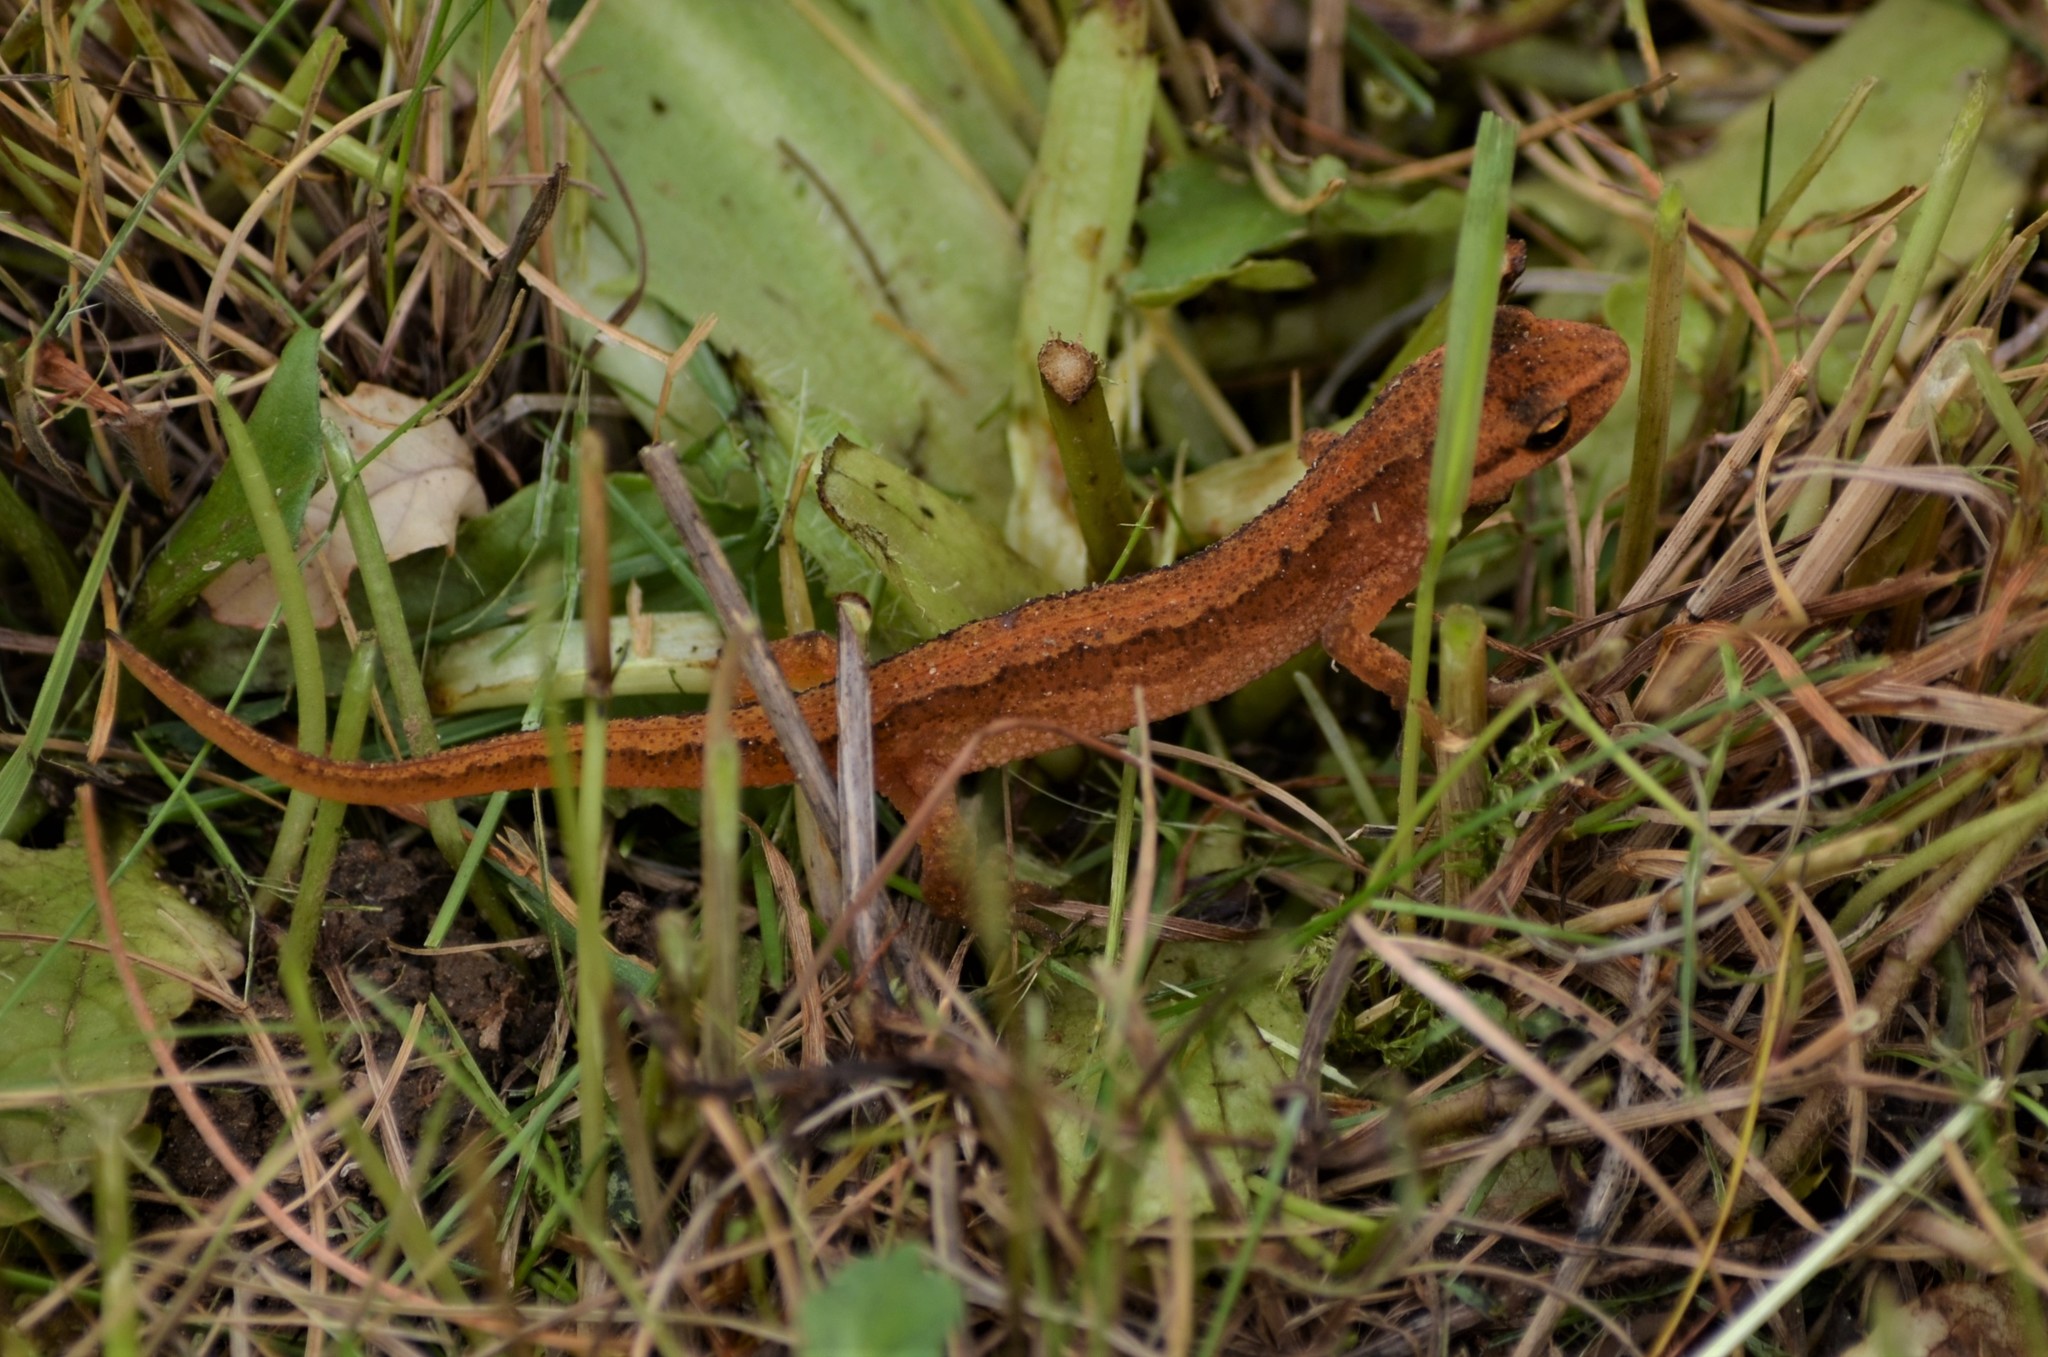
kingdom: Animalia
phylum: Chordata
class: Amphibia
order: Caudata
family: Salamandridae
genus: Lissotriton
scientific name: Lissotriton vulgaris
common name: Smooth newt
